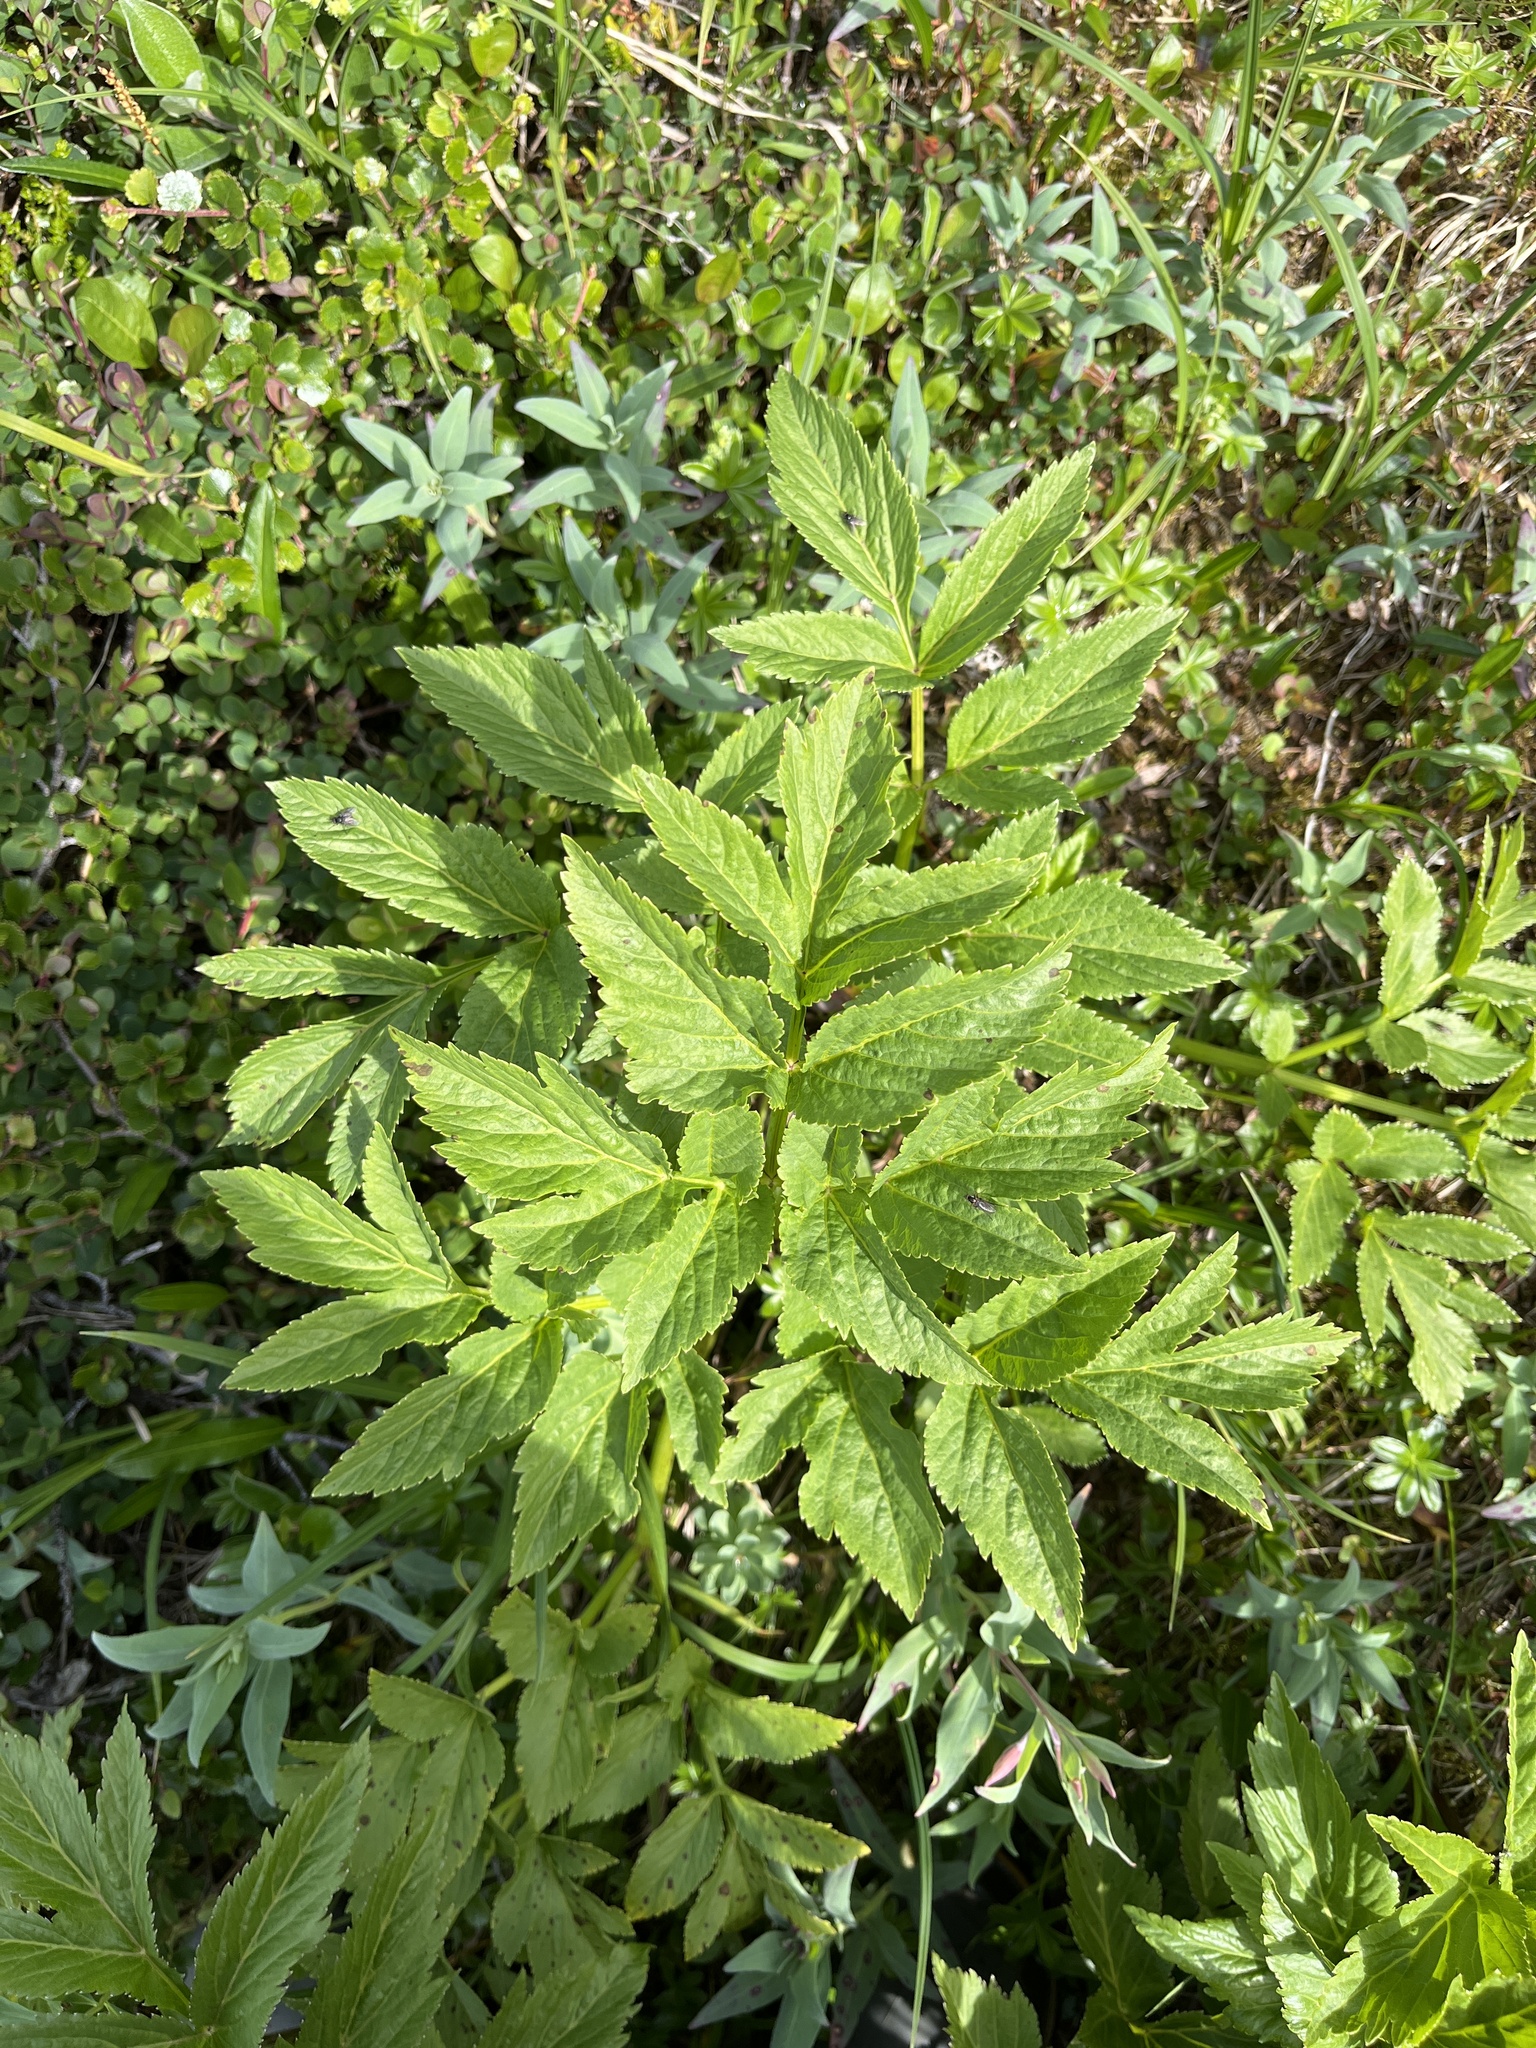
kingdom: Plantae
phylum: Tracheophyta
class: Magnoliopsida
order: Apiales
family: Apiaceae
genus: Angelica
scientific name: Angelica archangelica
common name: Garden angelica
